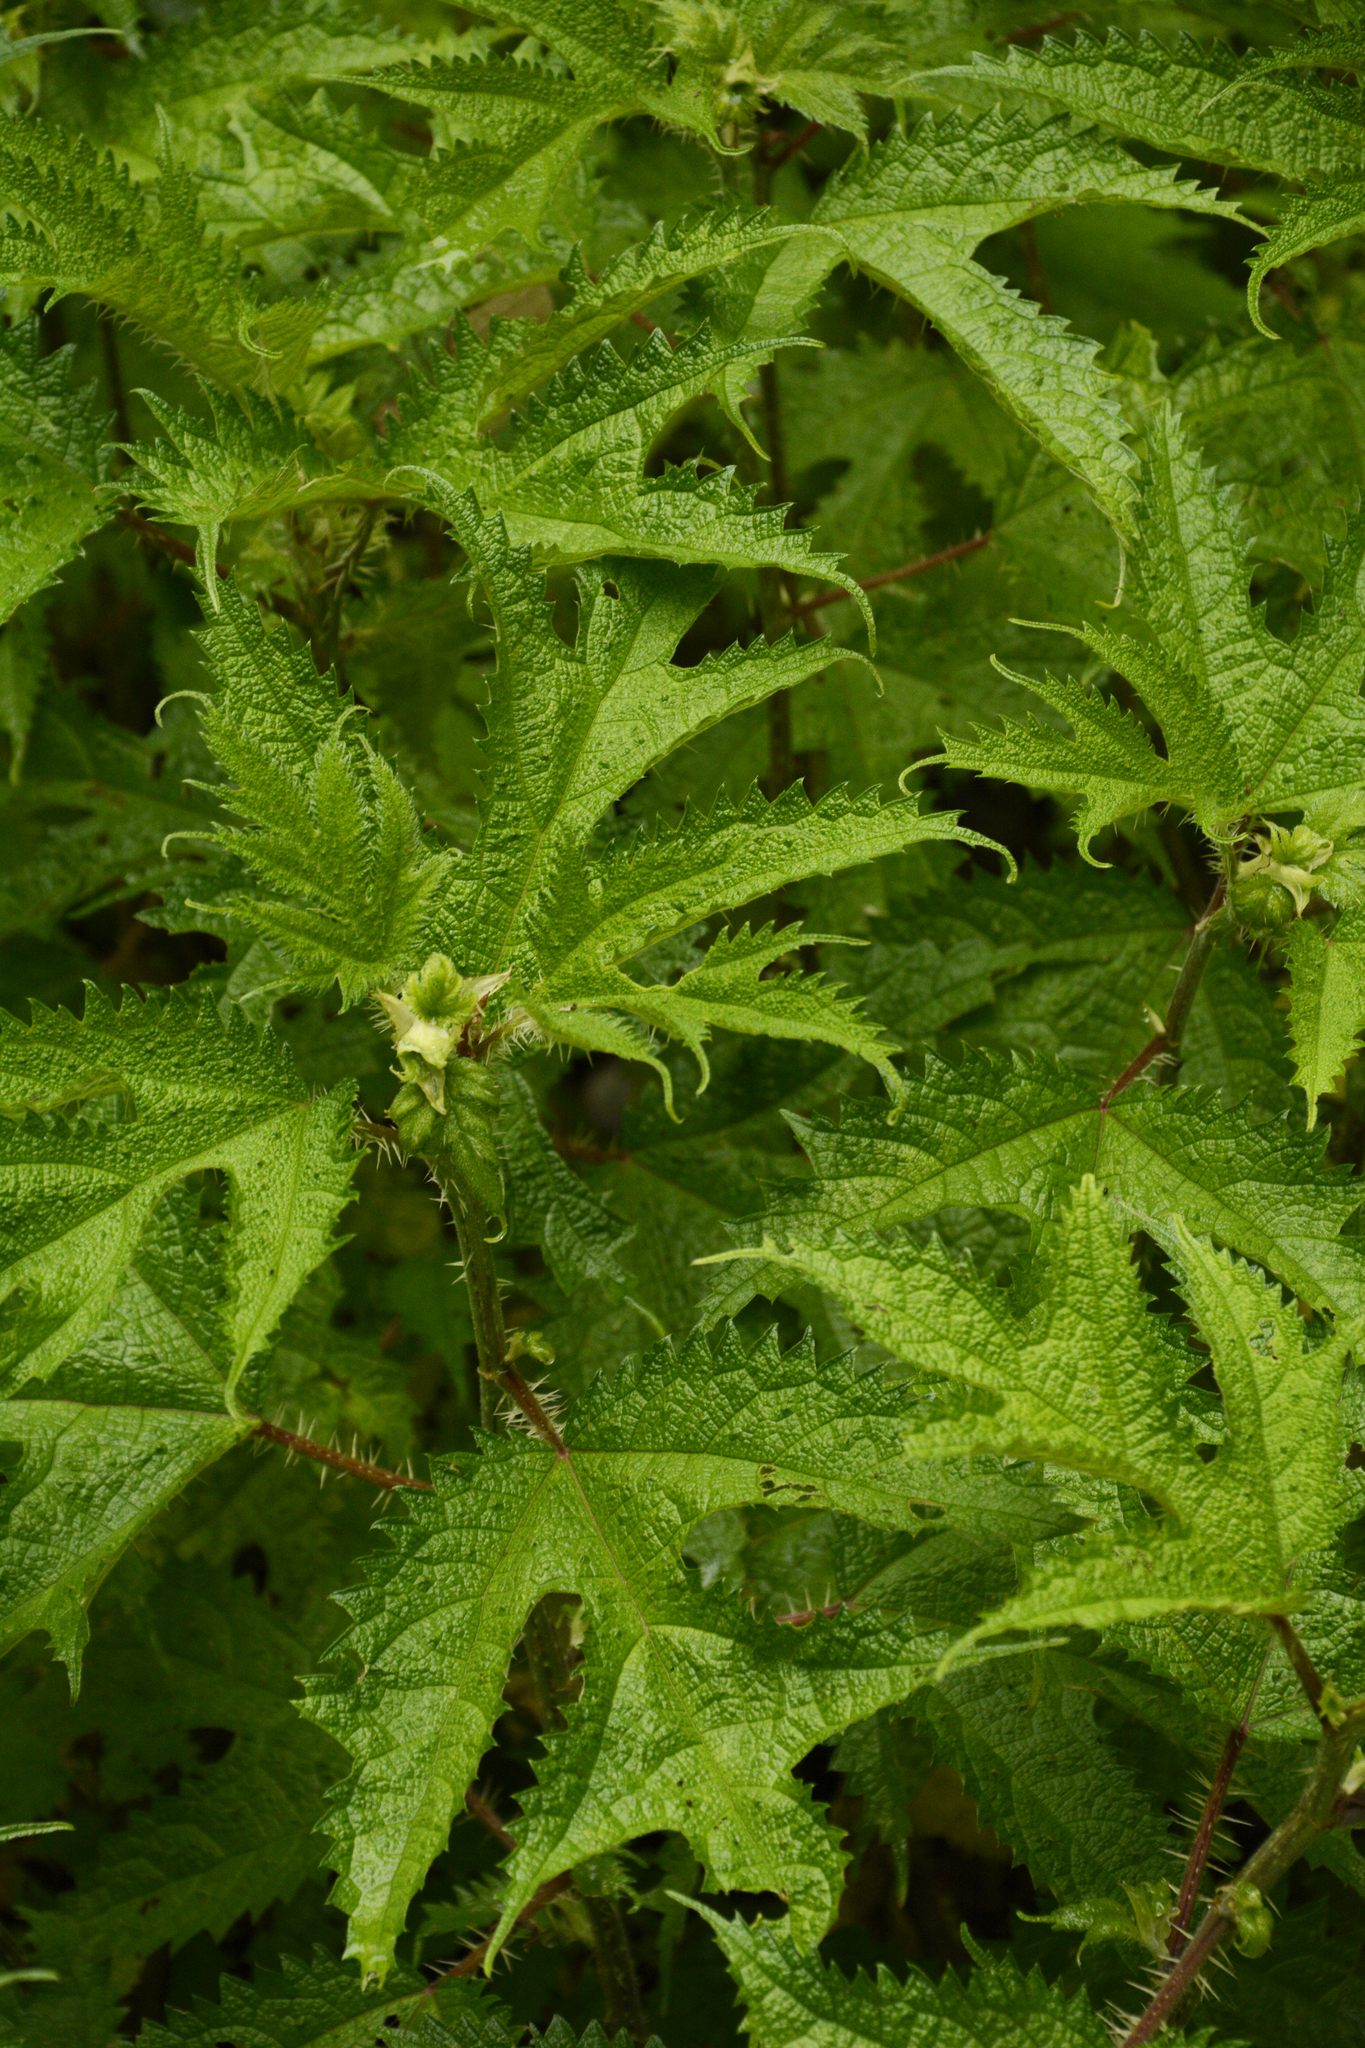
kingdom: Plantae
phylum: Tracheophyta
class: Magnoliopsida
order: Rosales
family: Urticaceae
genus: Girardinia
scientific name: Girardinia diversifolia
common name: Himalayan-nettle
